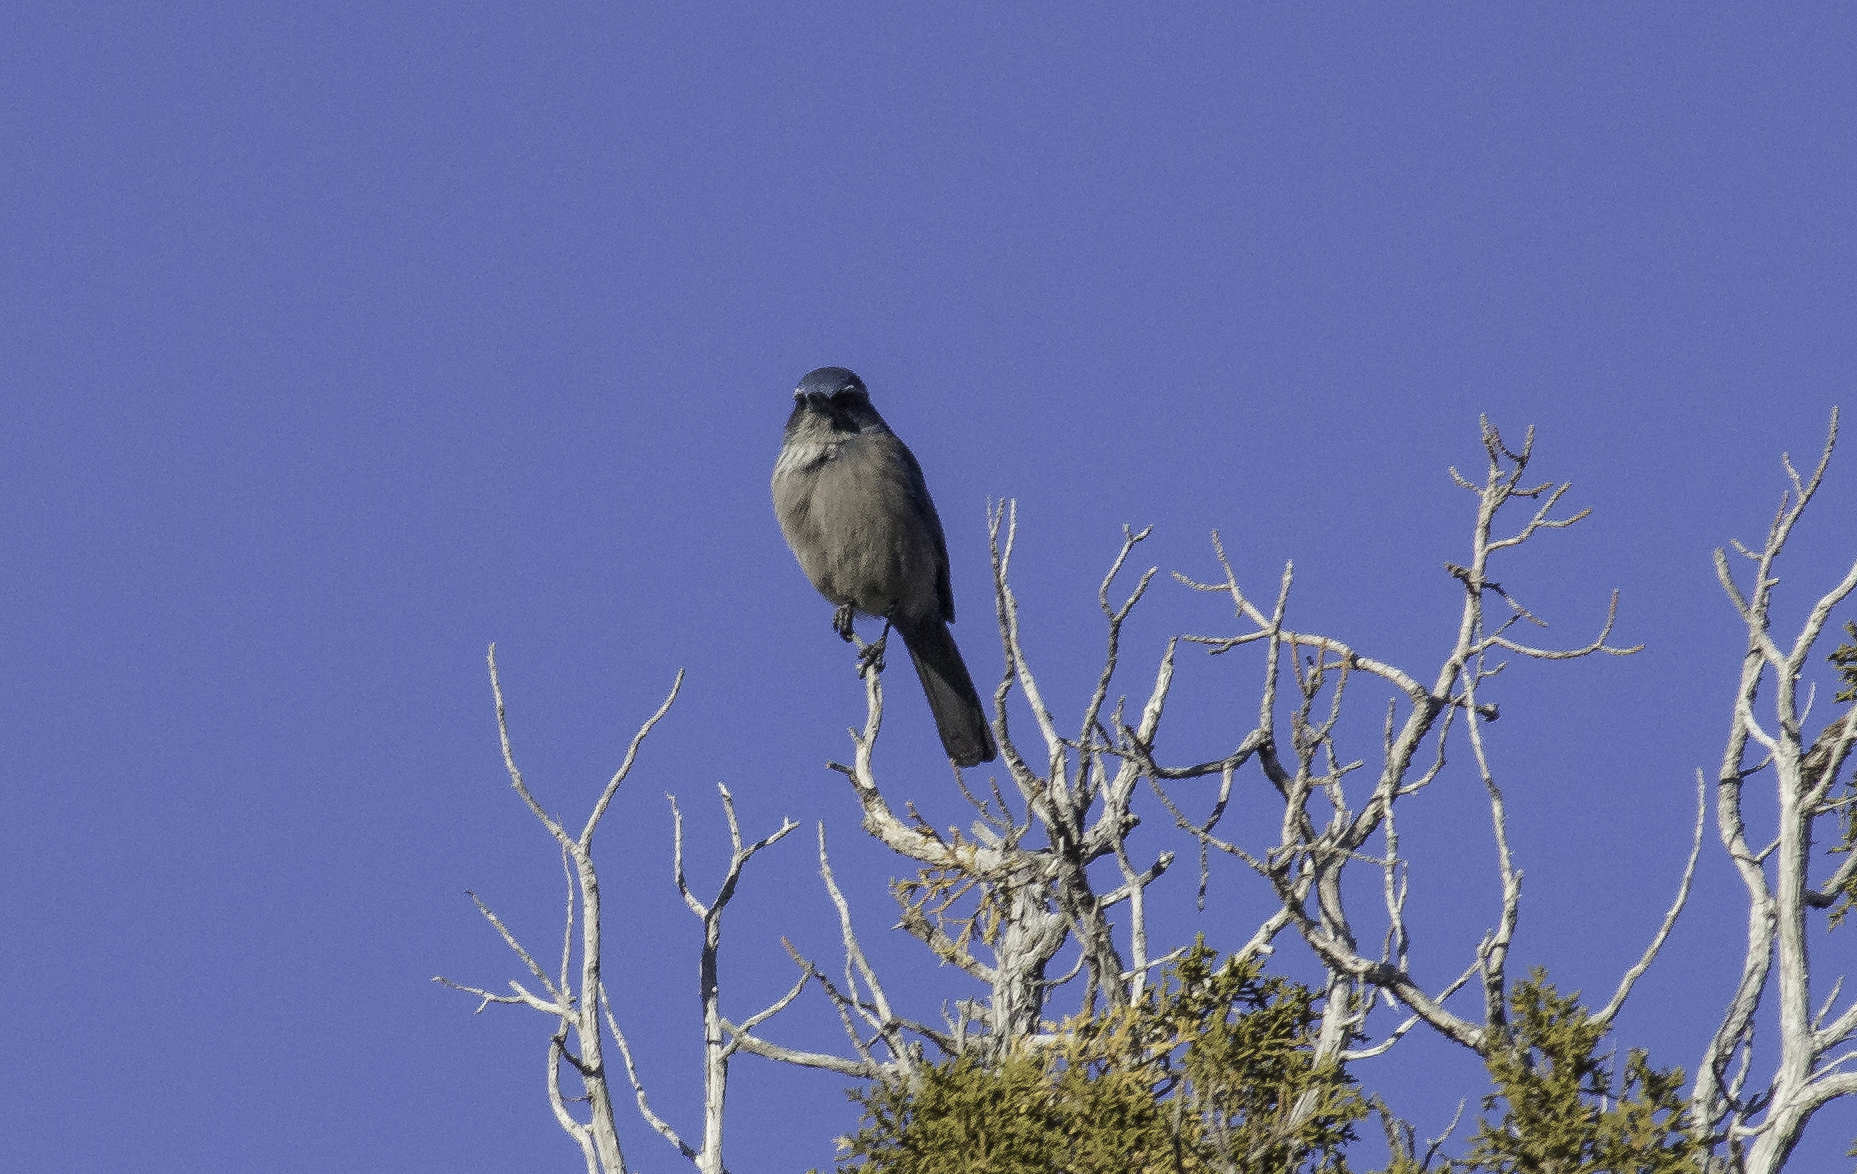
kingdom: Animalia
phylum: Chordata
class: Aves
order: Passeriformes
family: Corvidae
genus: Aphelocoma
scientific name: Aphelocoma woodhouseii
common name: Woodhouse's scrub-jay
